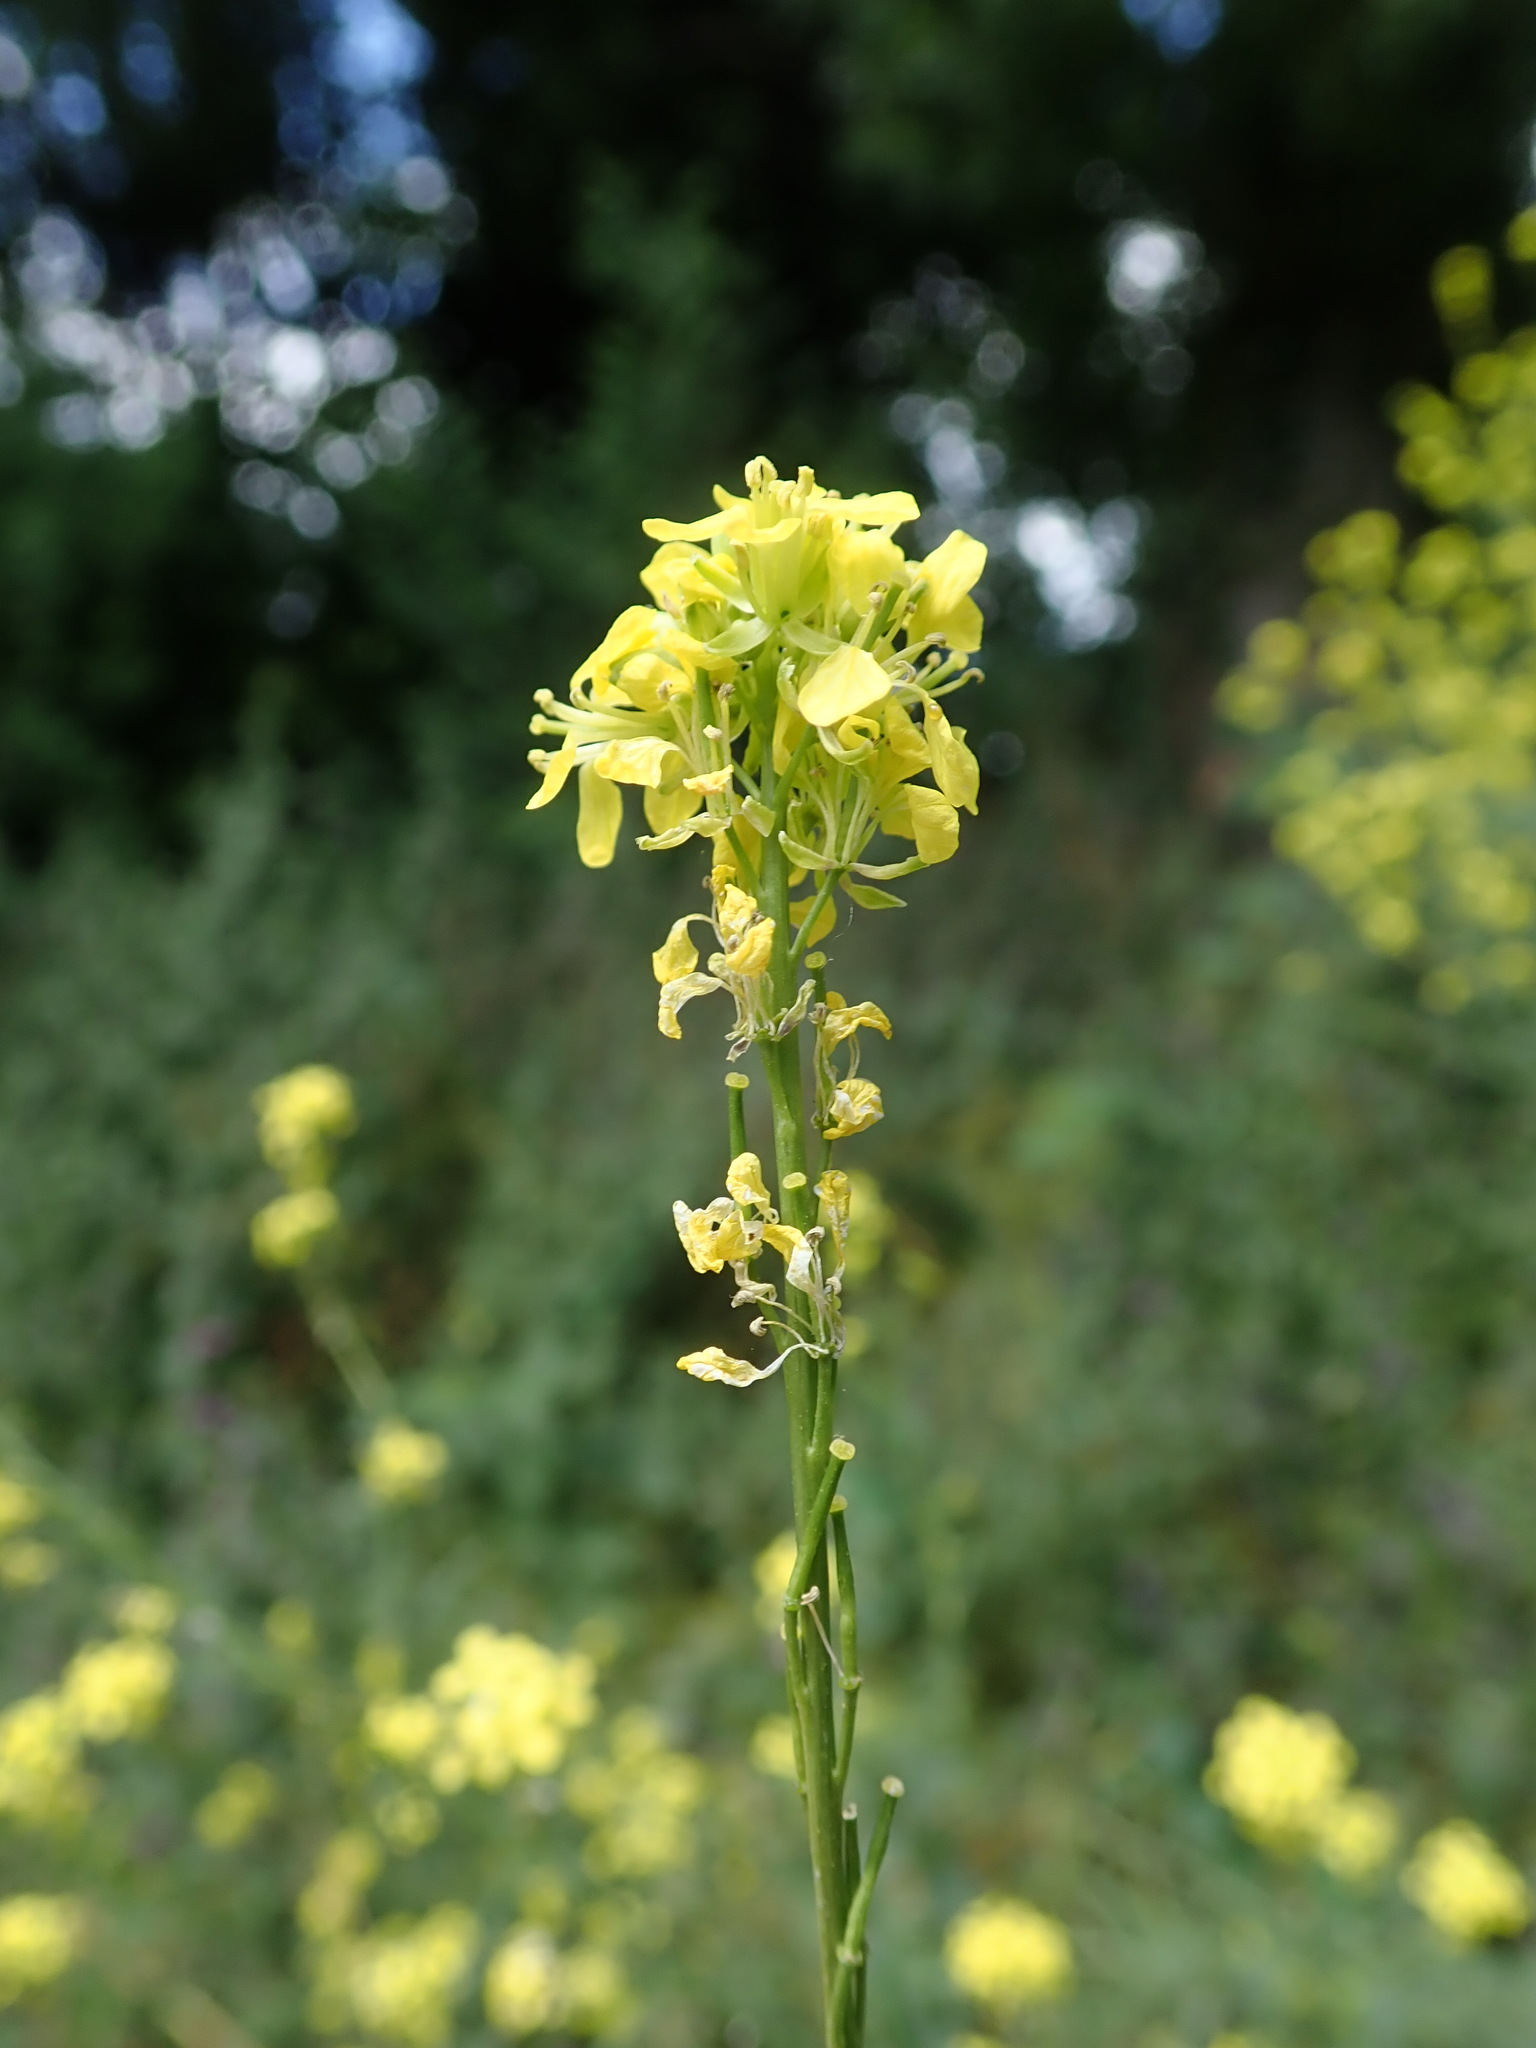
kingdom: Plantae
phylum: Tracheophyta
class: Magnoliopsida
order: Brassicales
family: Brassicaceae
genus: Hirschfeldia
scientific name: Hirschfeldia incana
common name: Hoary mustard
